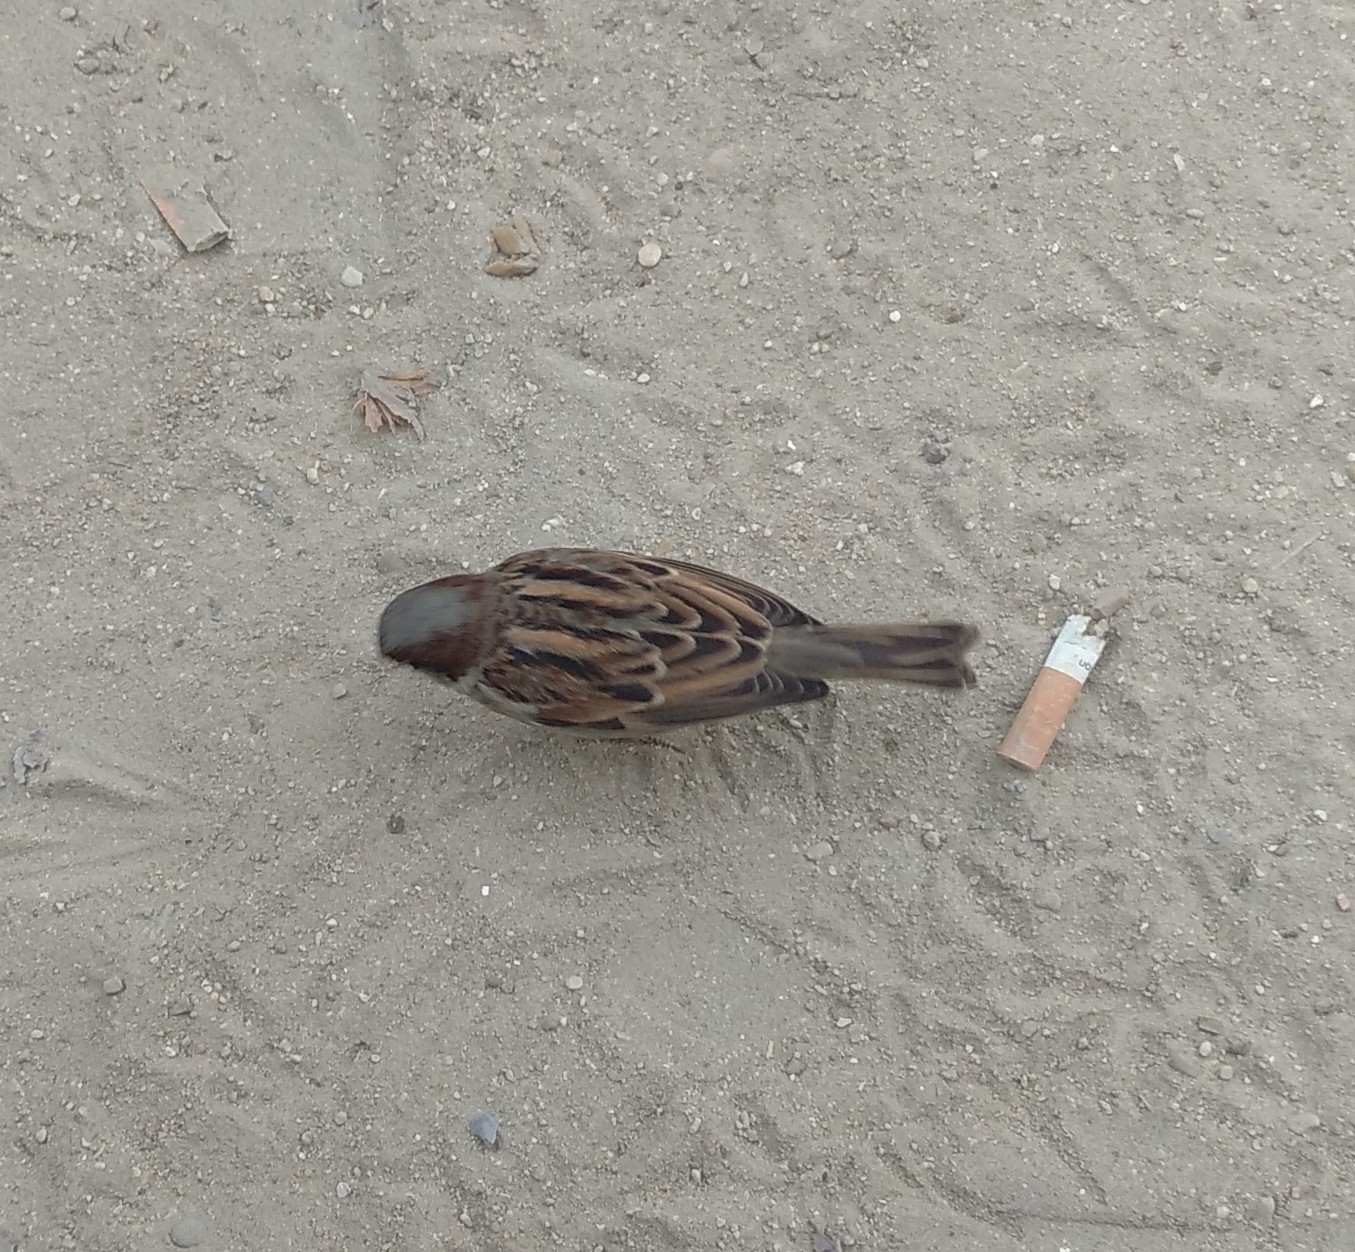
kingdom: Animalia
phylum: Chordata
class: Aves
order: Passeriformes
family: Passeridae
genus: Passer
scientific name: Passer domesticus
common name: House sparrow
